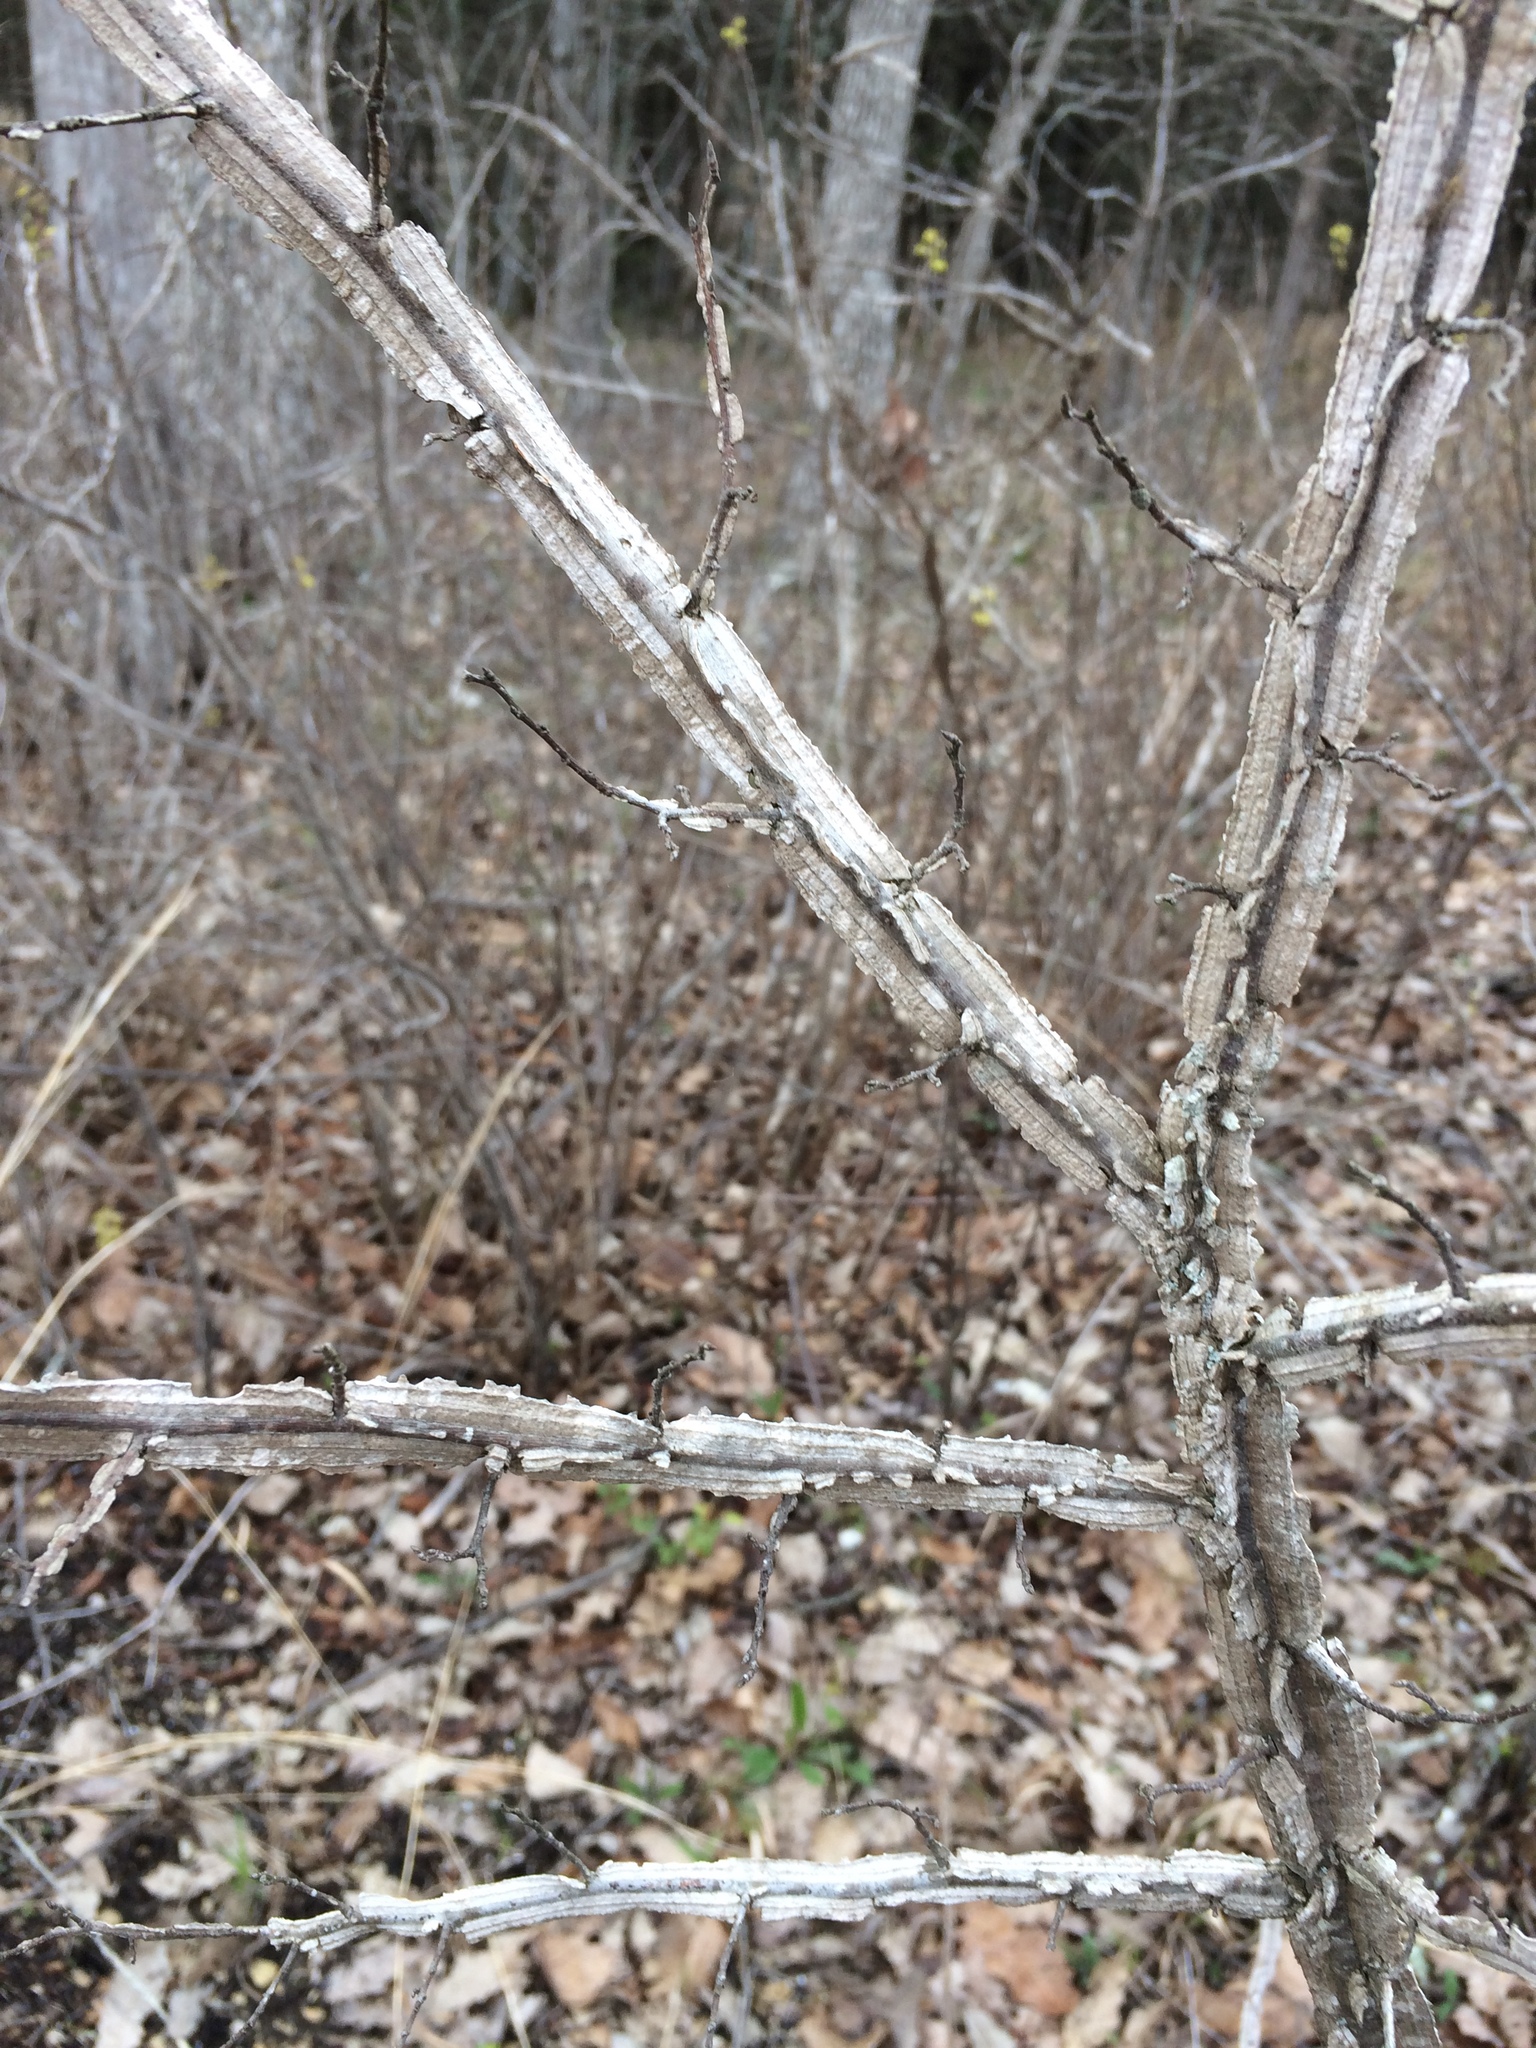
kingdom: Plantae
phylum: Tracheophyta
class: Magnoliopsida
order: Rosales
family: Ulmaceae
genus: Ulmus
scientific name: Ulmus alata
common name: Winged elm
